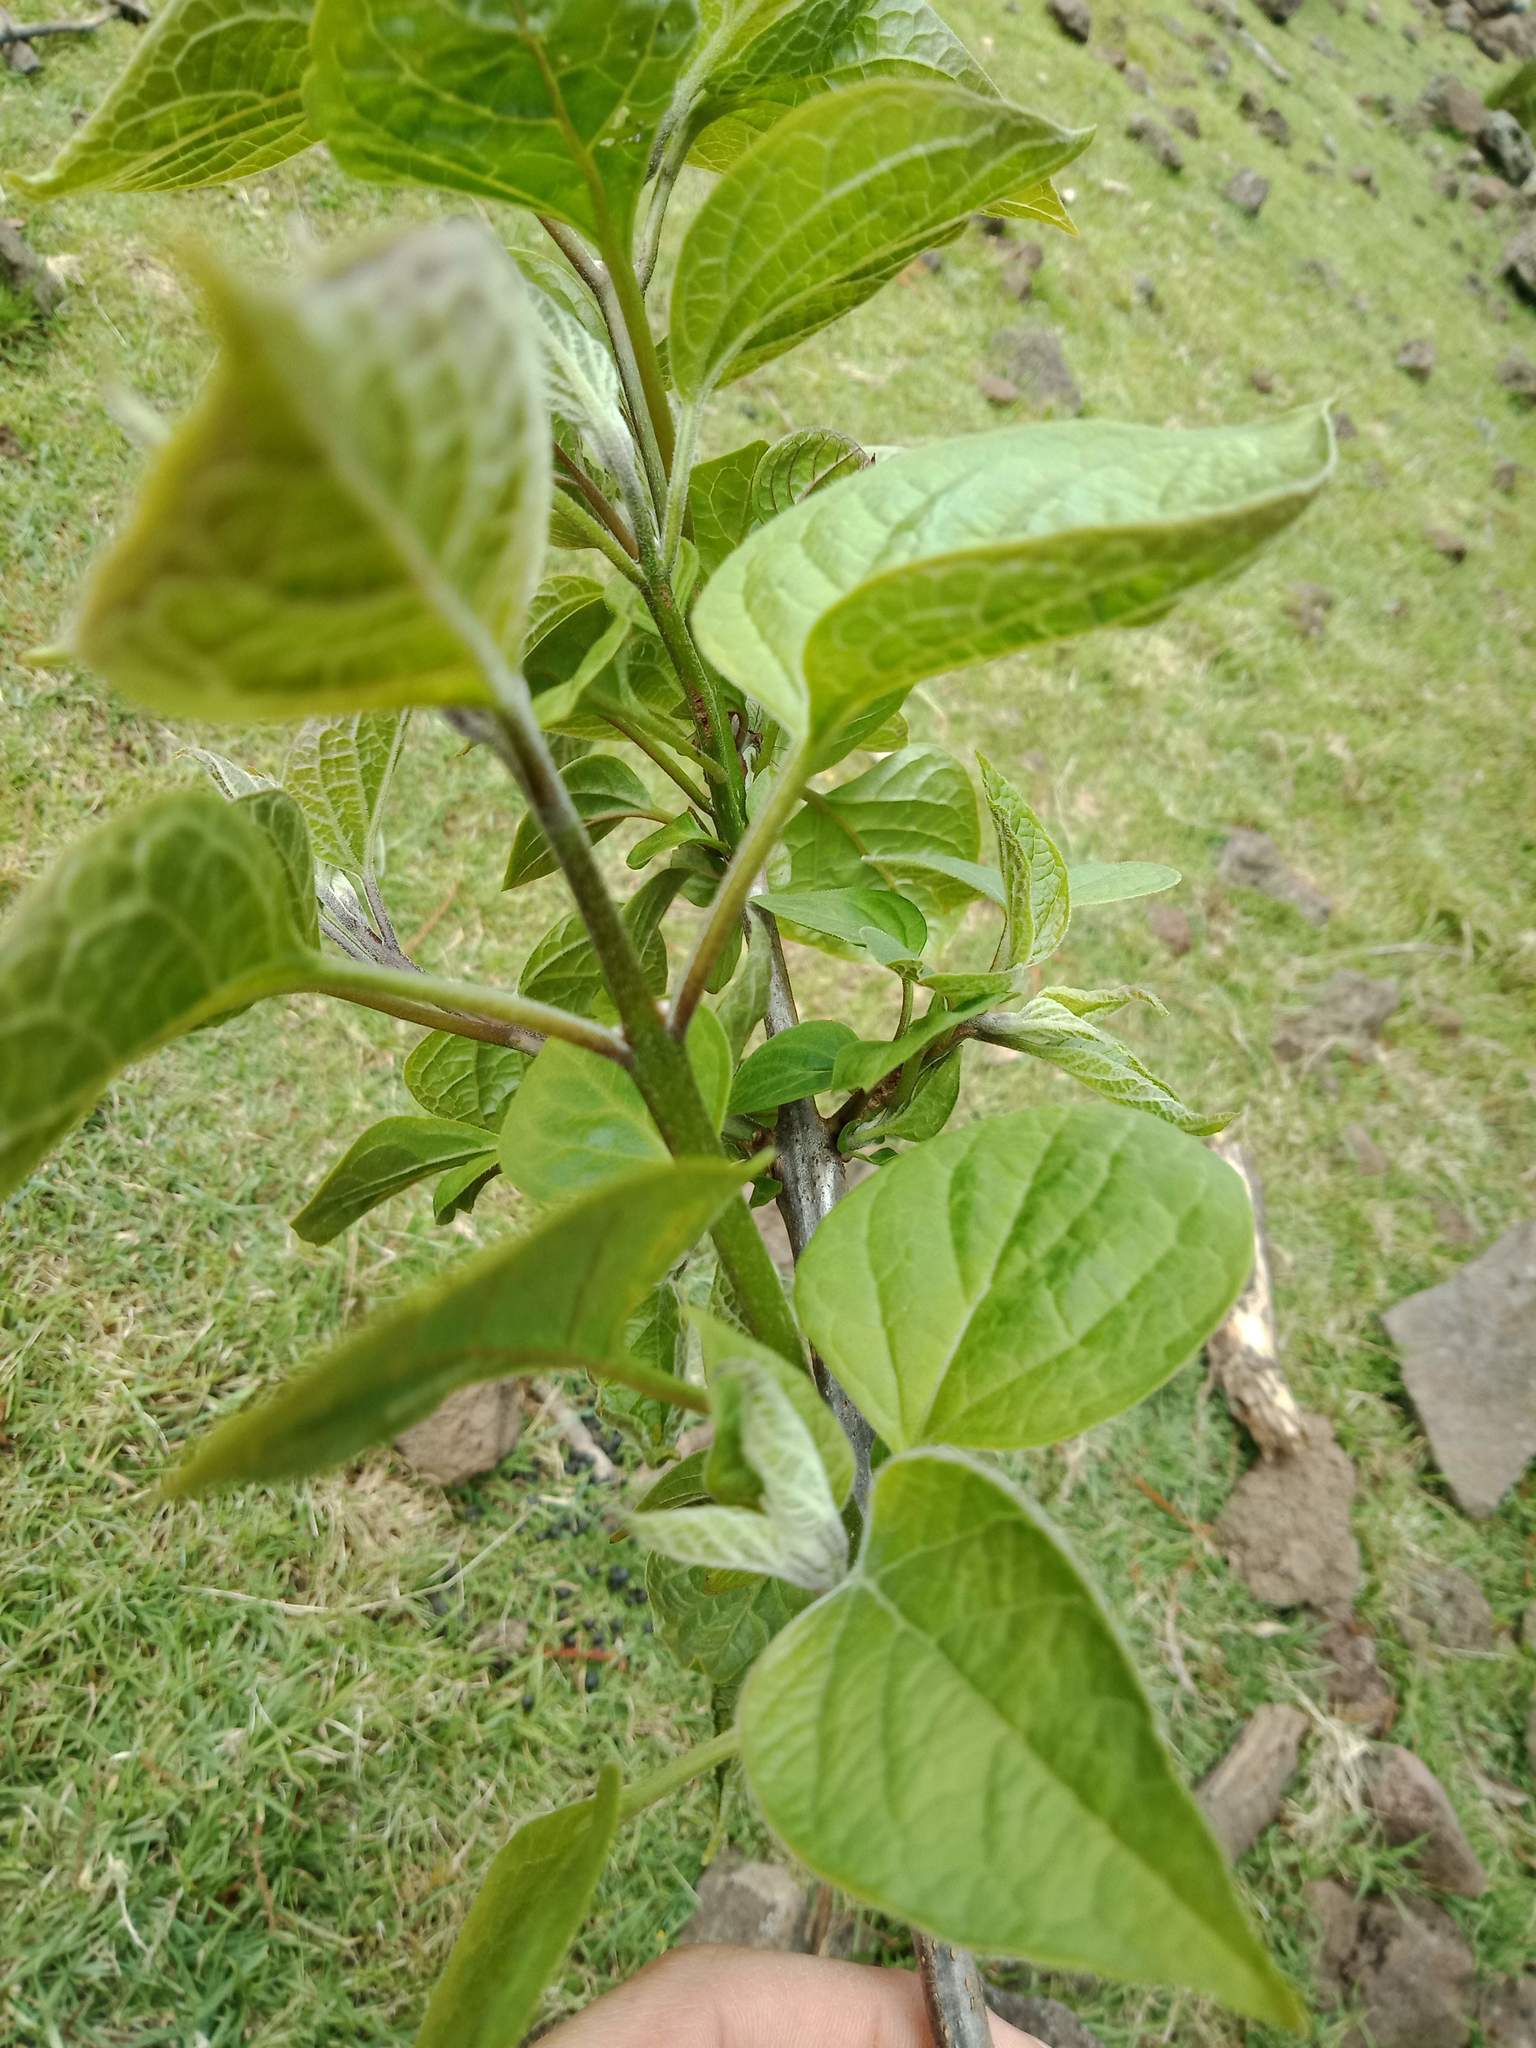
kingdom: Plantae
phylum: Tracheophyta
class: Magnoliopsida
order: Lamiales
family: Lamiaceae
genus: Clerodendrum
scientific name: Clerodendrum trichotomum
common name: Harlequin glorybower
